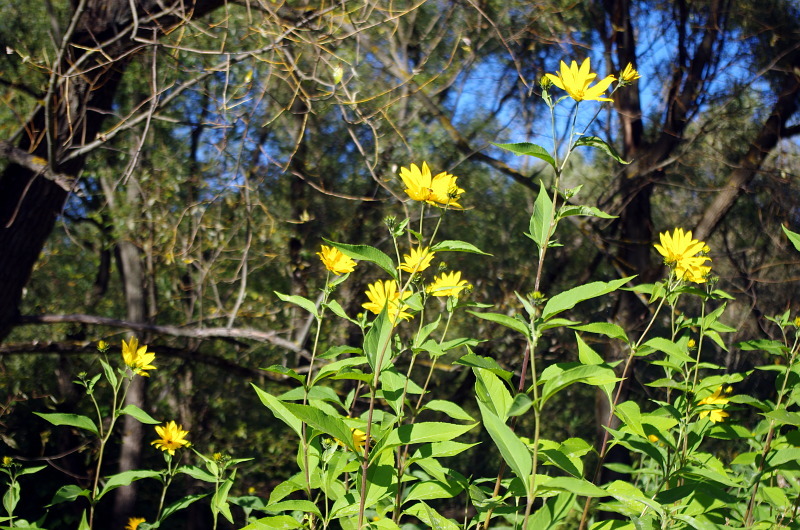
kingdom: Plantae
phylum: Tracheophyta
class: Magnoliopsida
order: Asterales
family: Asteraceae
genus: Helianthus
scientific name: Helianthus tuberosus
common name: Jerusalem artichoke
